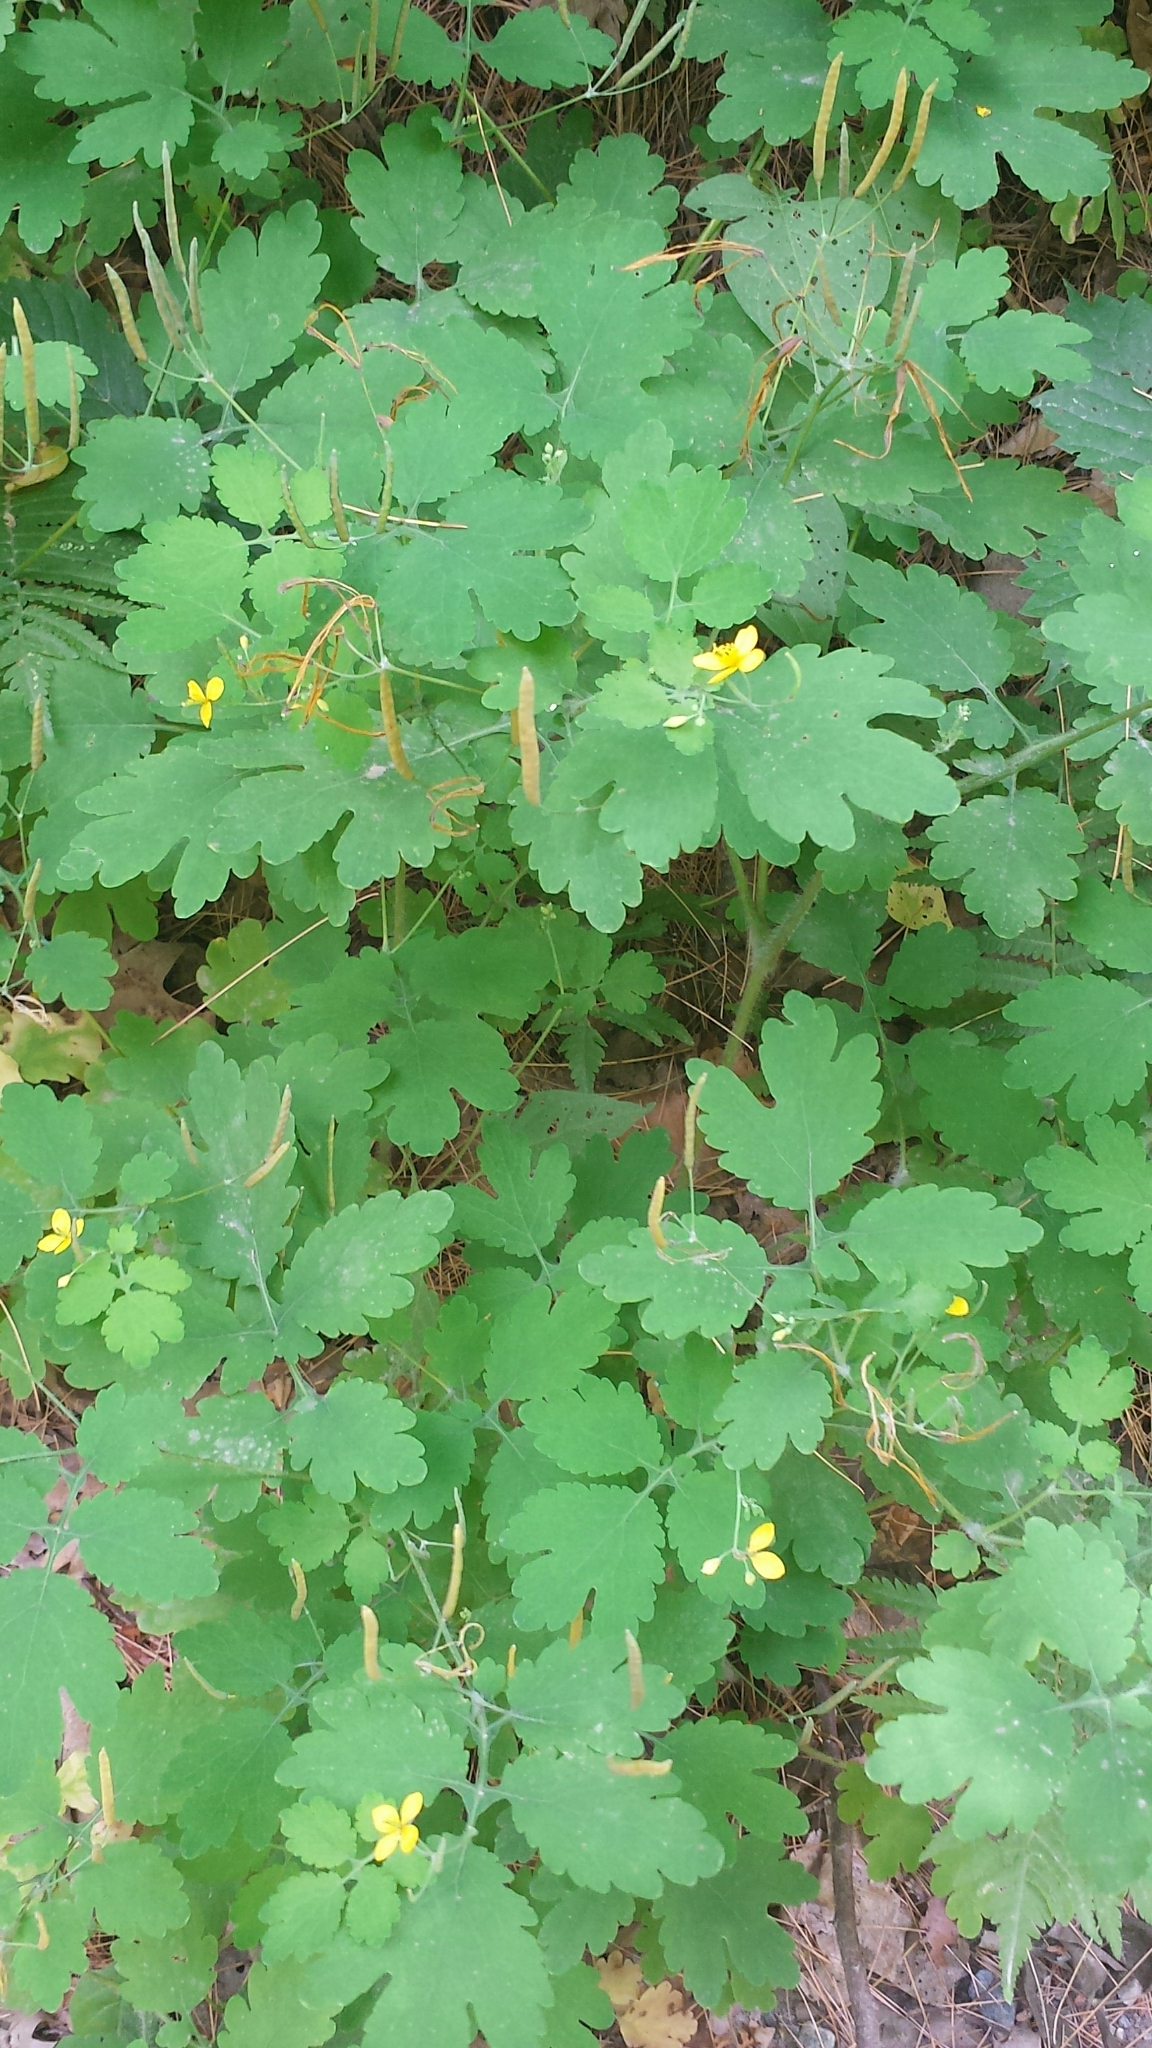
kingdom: Plantae
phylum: Tracheophyta
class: Magnoliopsida
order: Ranunculales
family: Papaveraceae
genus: Chelidonium
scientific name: Chelidonium majus
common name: Greater celandine
